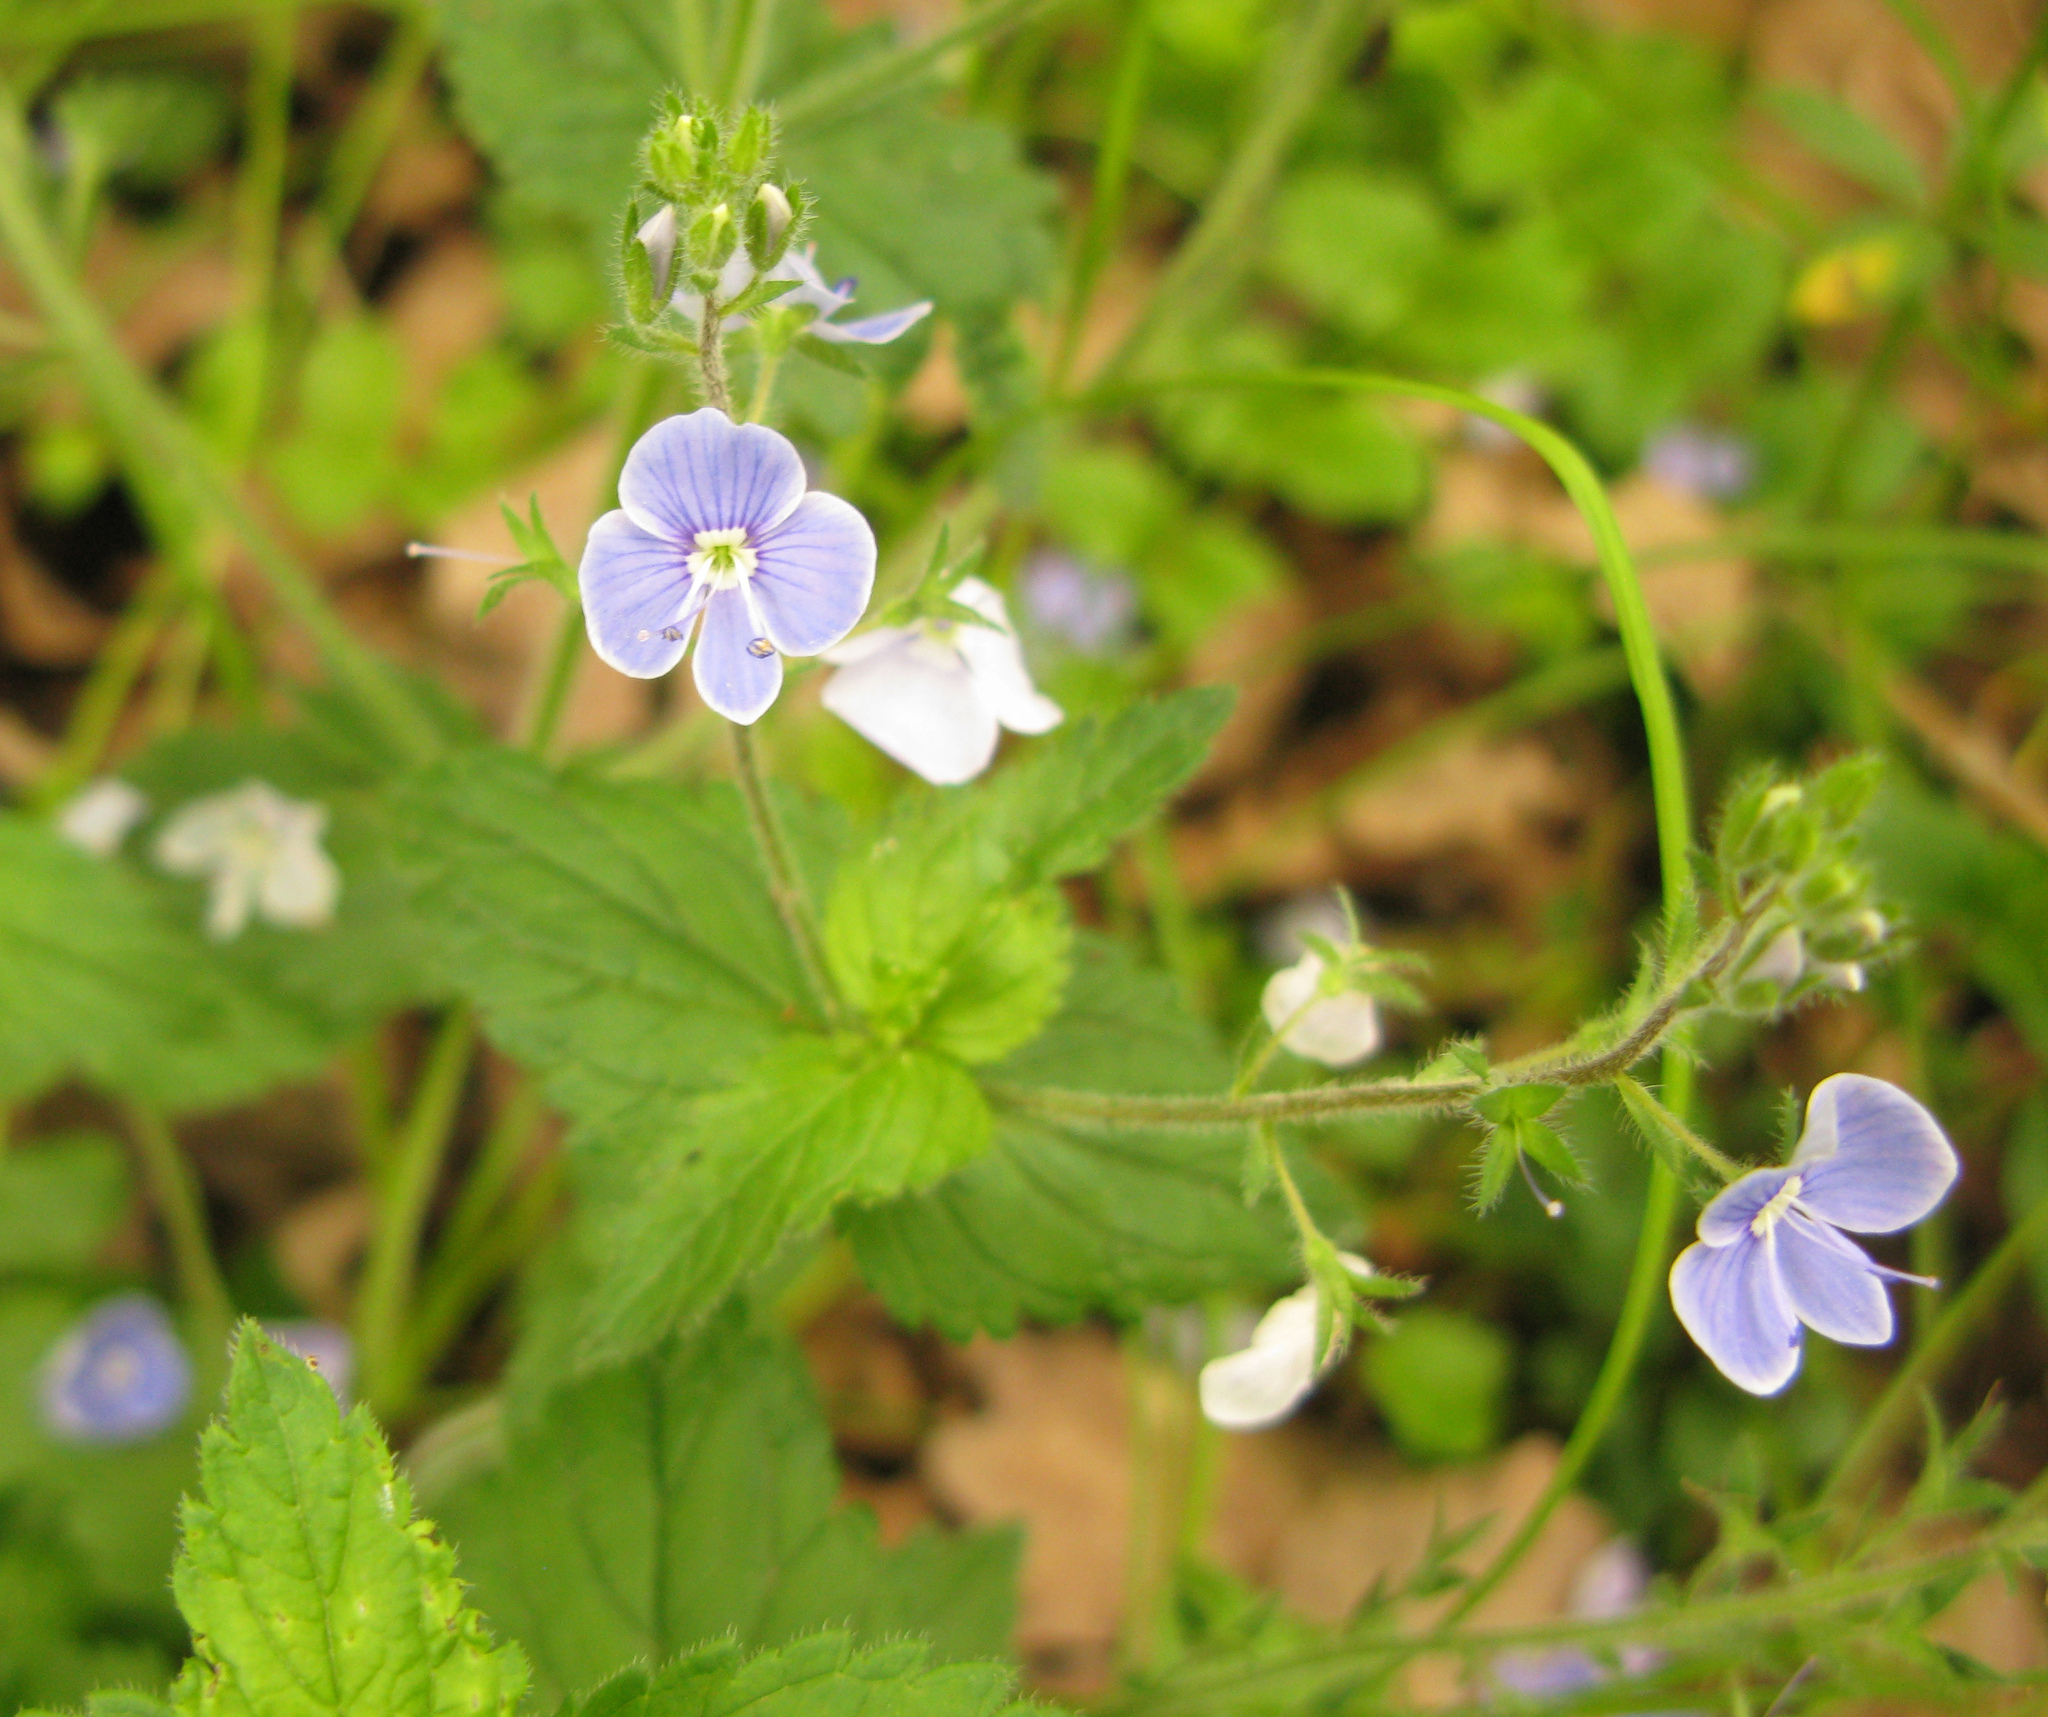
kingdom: Plantae
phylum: Tracheophyta
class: Magnoliopsida
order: Lamiales
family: Plantaginaceae
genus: Veronica
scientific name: Veronica chamaedrys
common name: Germander speedwell
